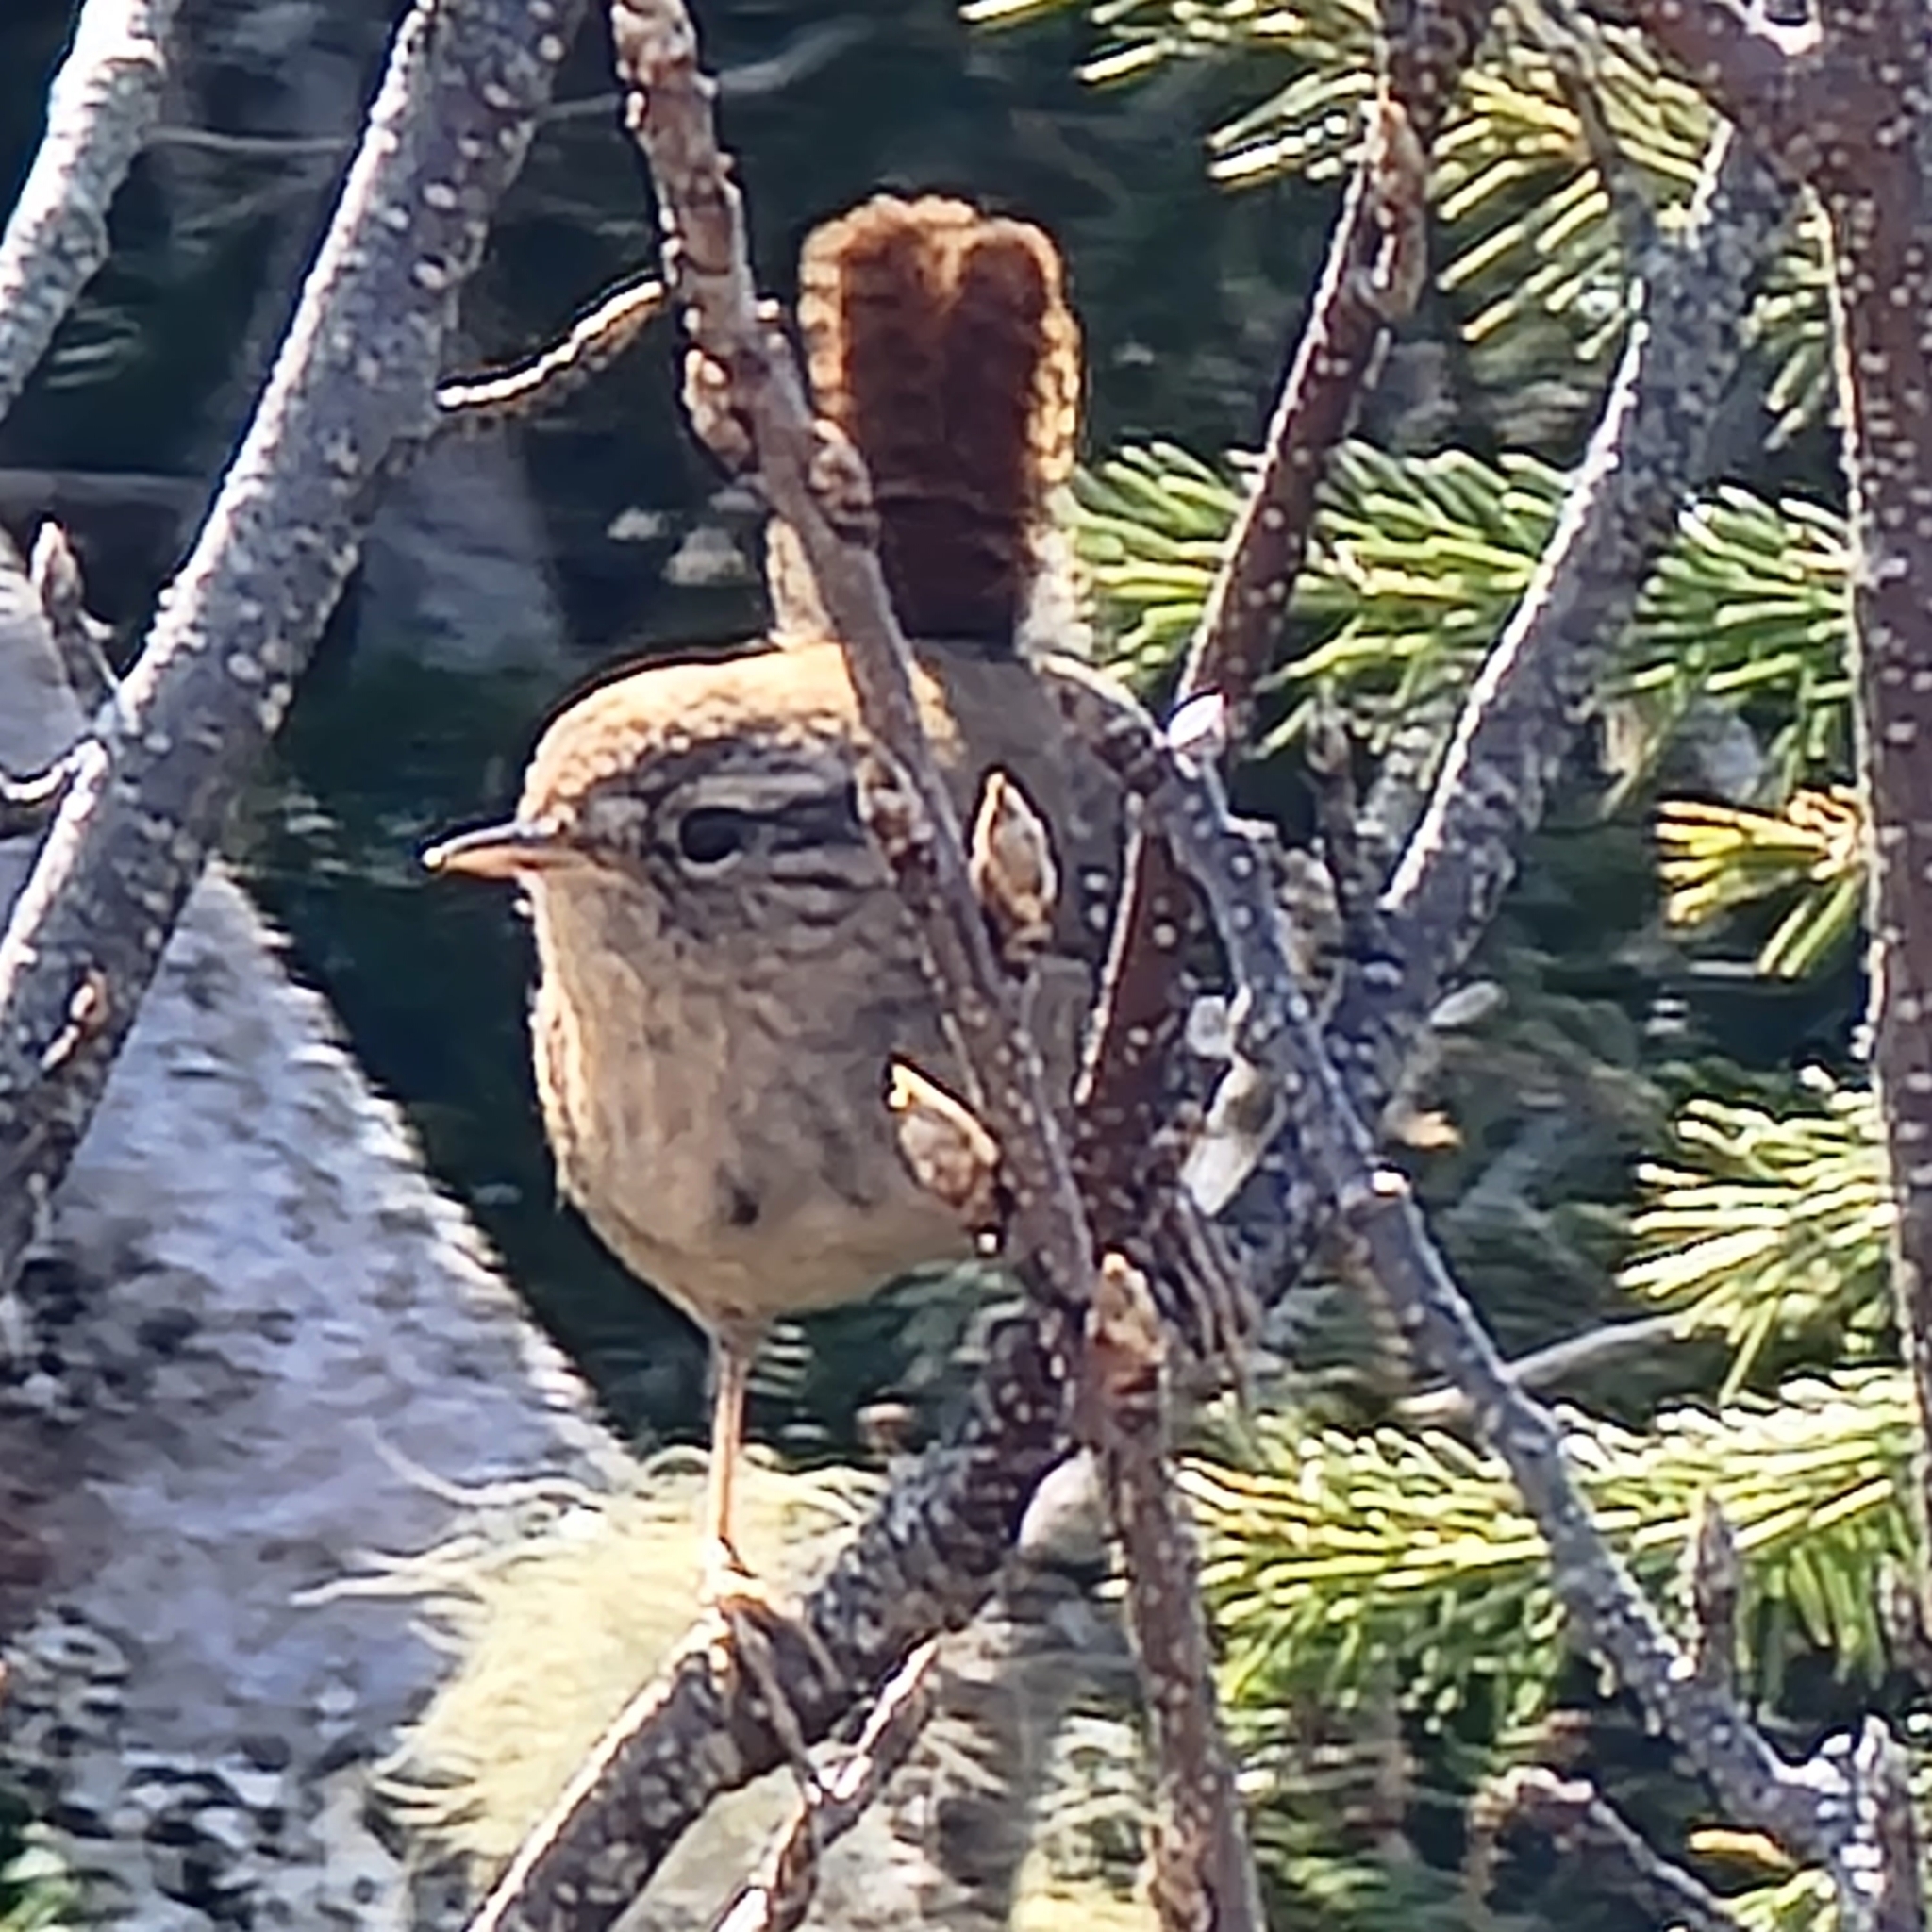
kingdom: Animalia
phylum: Chordata
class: Aves
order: Passeriformes
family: Troglodytidae
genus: Troglodytes
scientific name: Troglodytes hiemalis
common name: Winter wren
